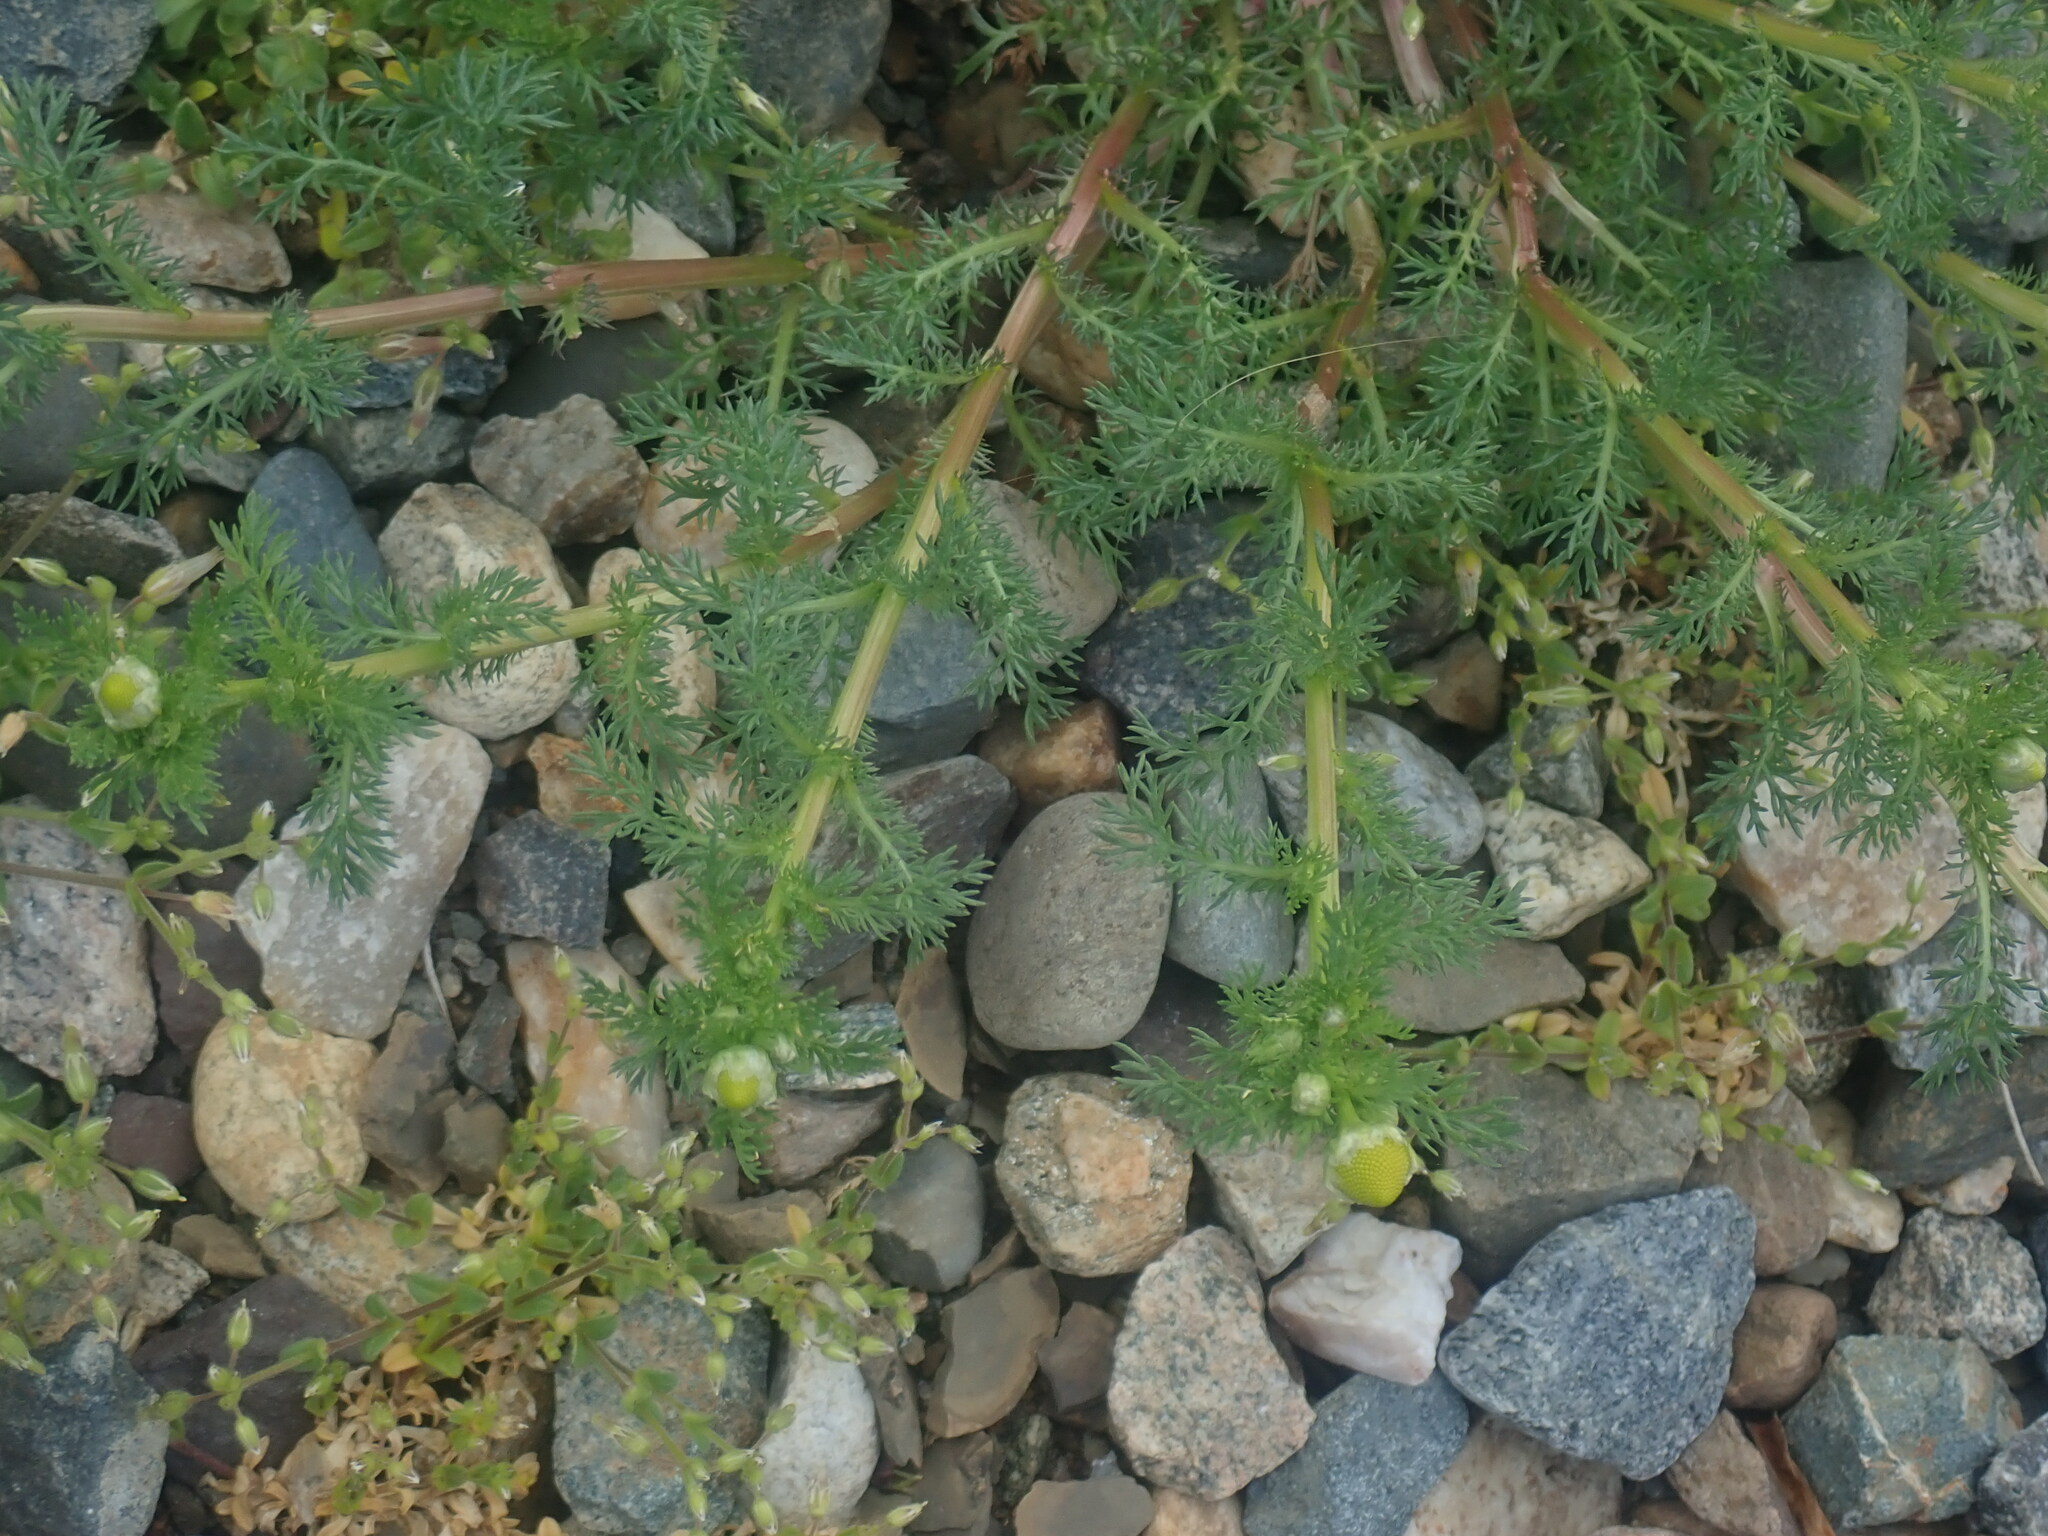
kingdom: Plantae
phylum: Tracheophyta
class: Magnoliopsida
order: Asterales
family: Asteraceae
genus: Matricaria
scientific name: Matricaria discoidea
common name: Disc mayweed
